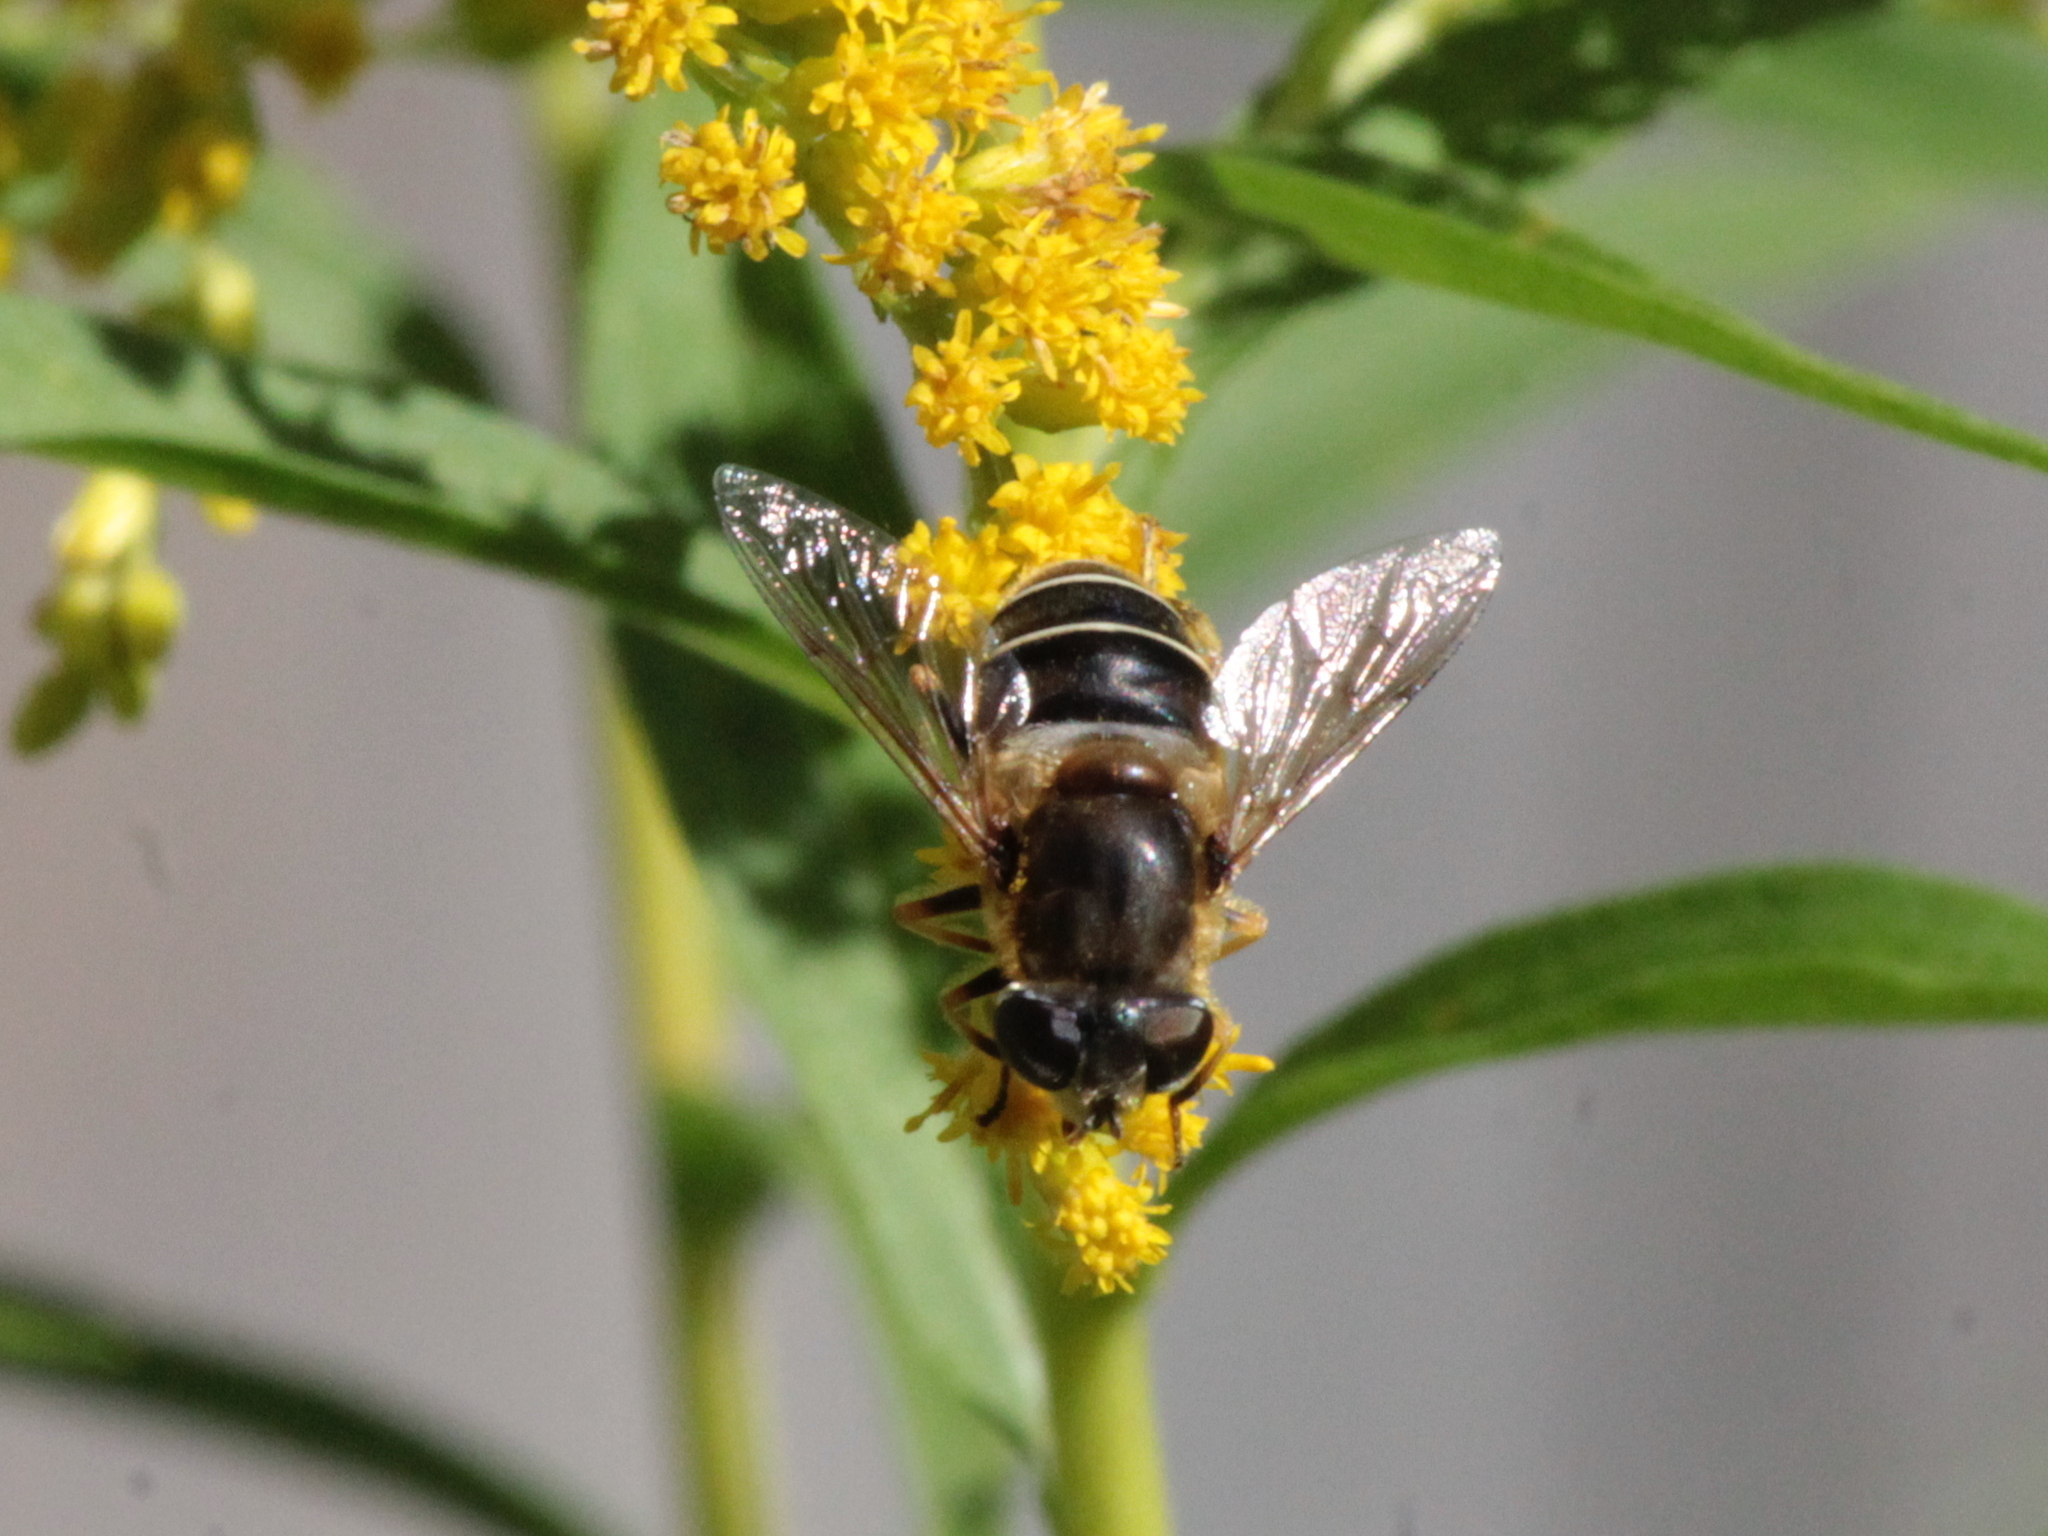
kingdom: Animalia
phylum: Arthropoda
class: Insecta
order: Diptera
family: Syrphidae
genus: Eristalis
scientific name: Eristalis nemorum
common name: Orange-spined drone fly
